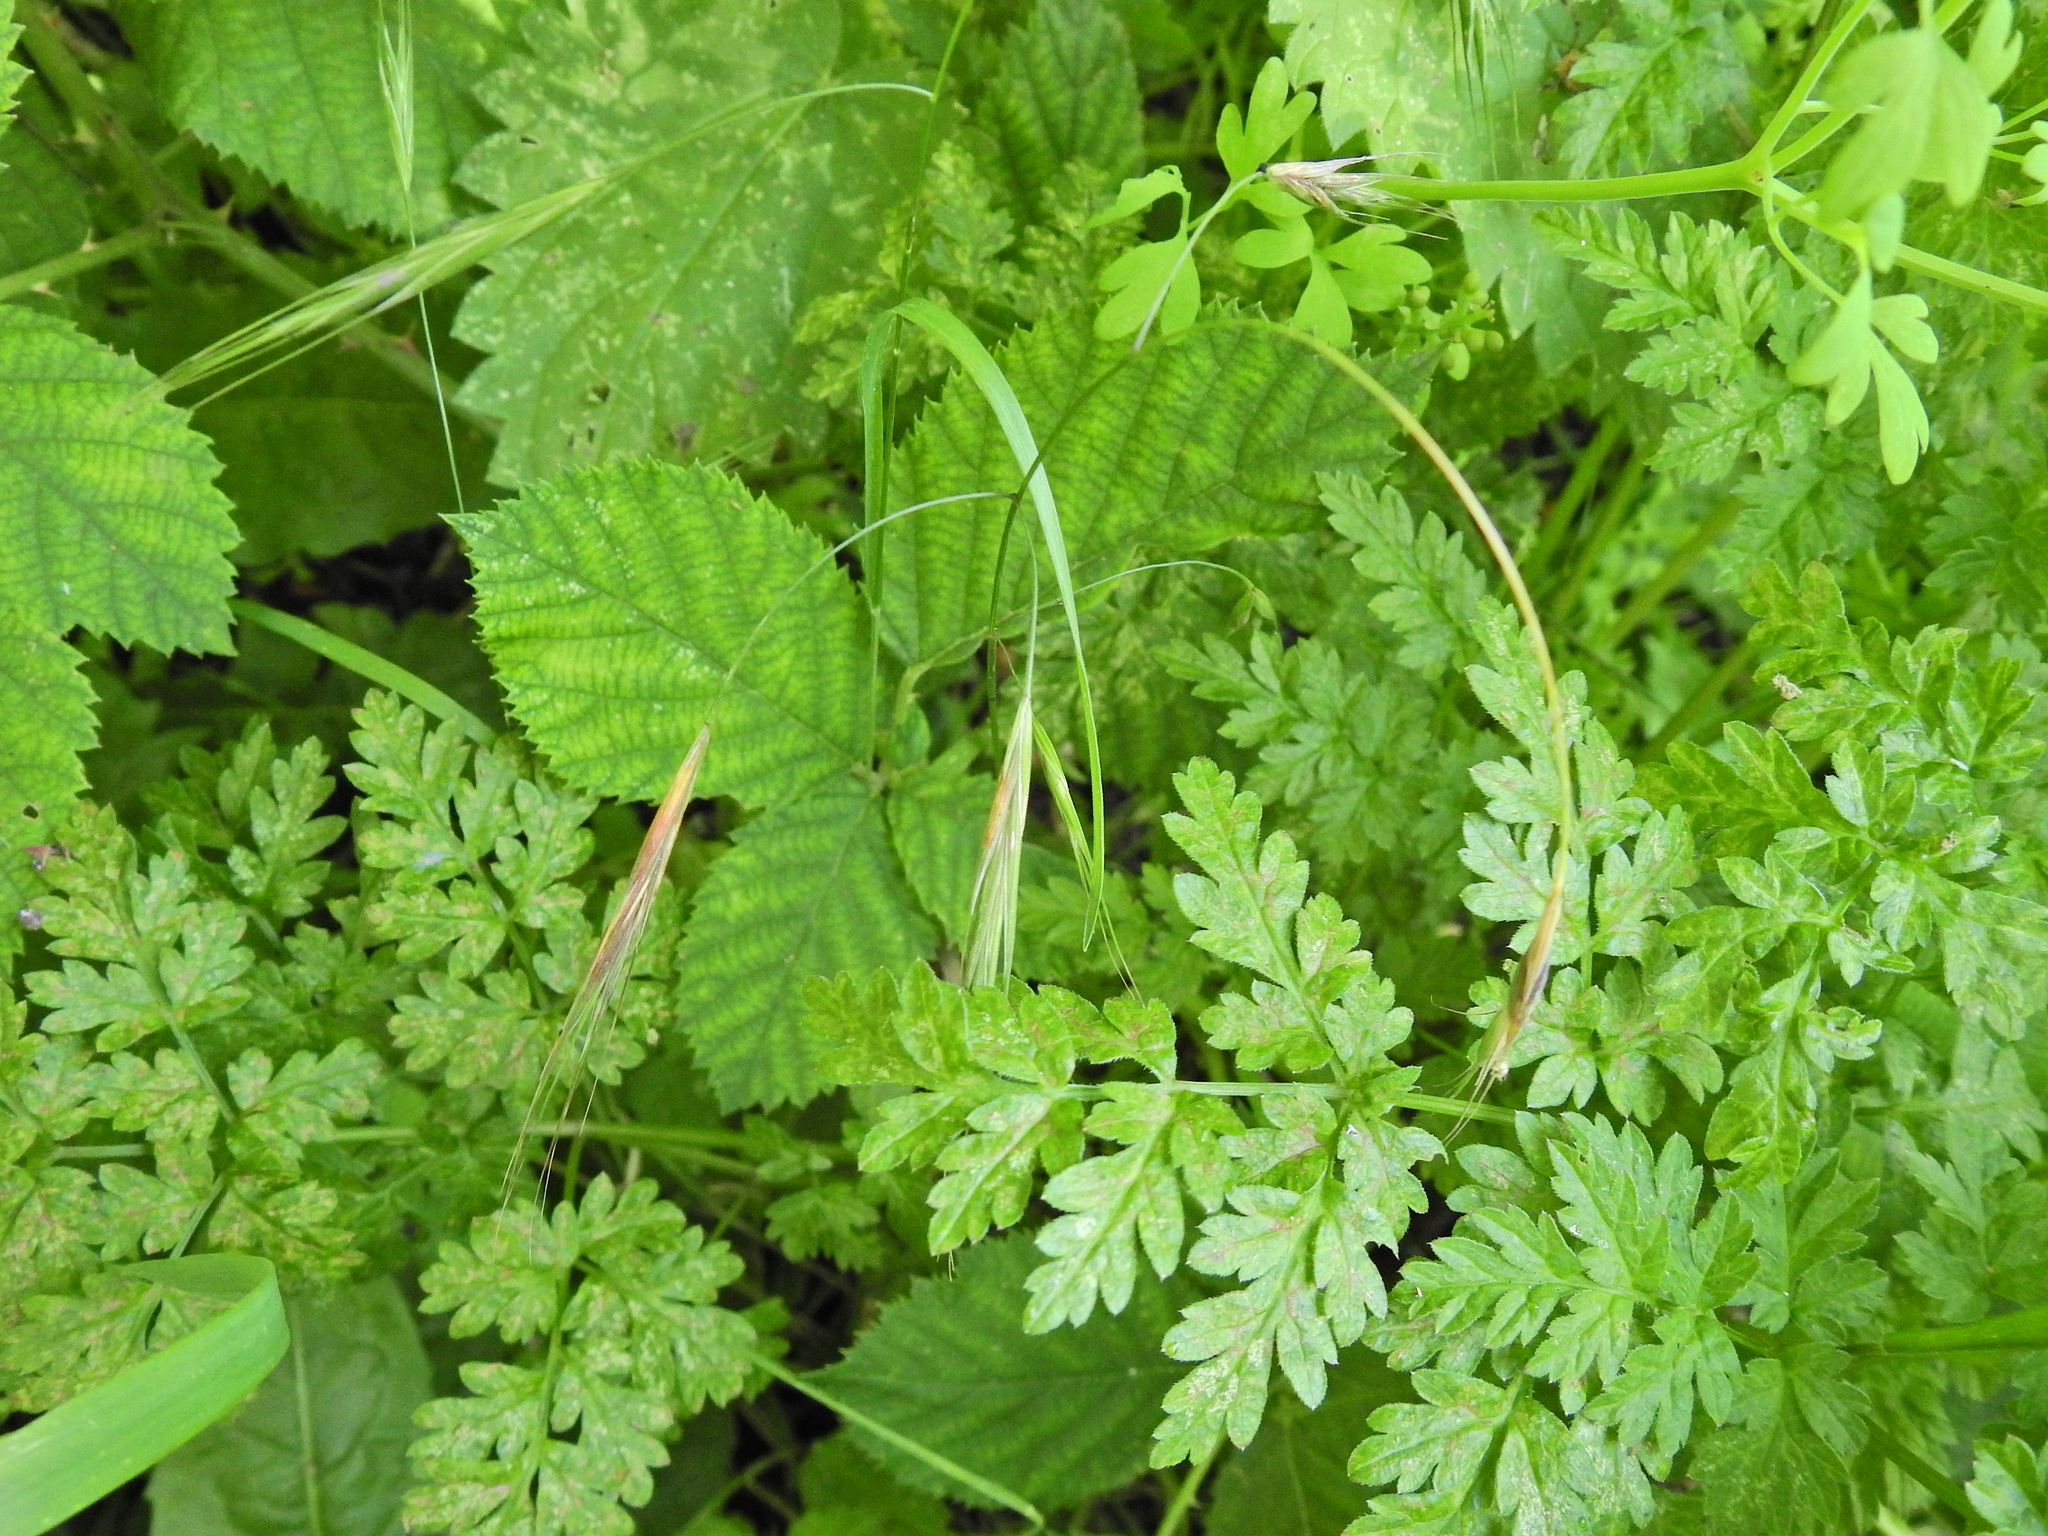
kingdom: Plantae
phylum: Tracheophyta
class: Liliopsida
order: Poales
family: Poaceae
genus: Bromus
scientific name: Bromus sterilis
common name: Poverty brome
